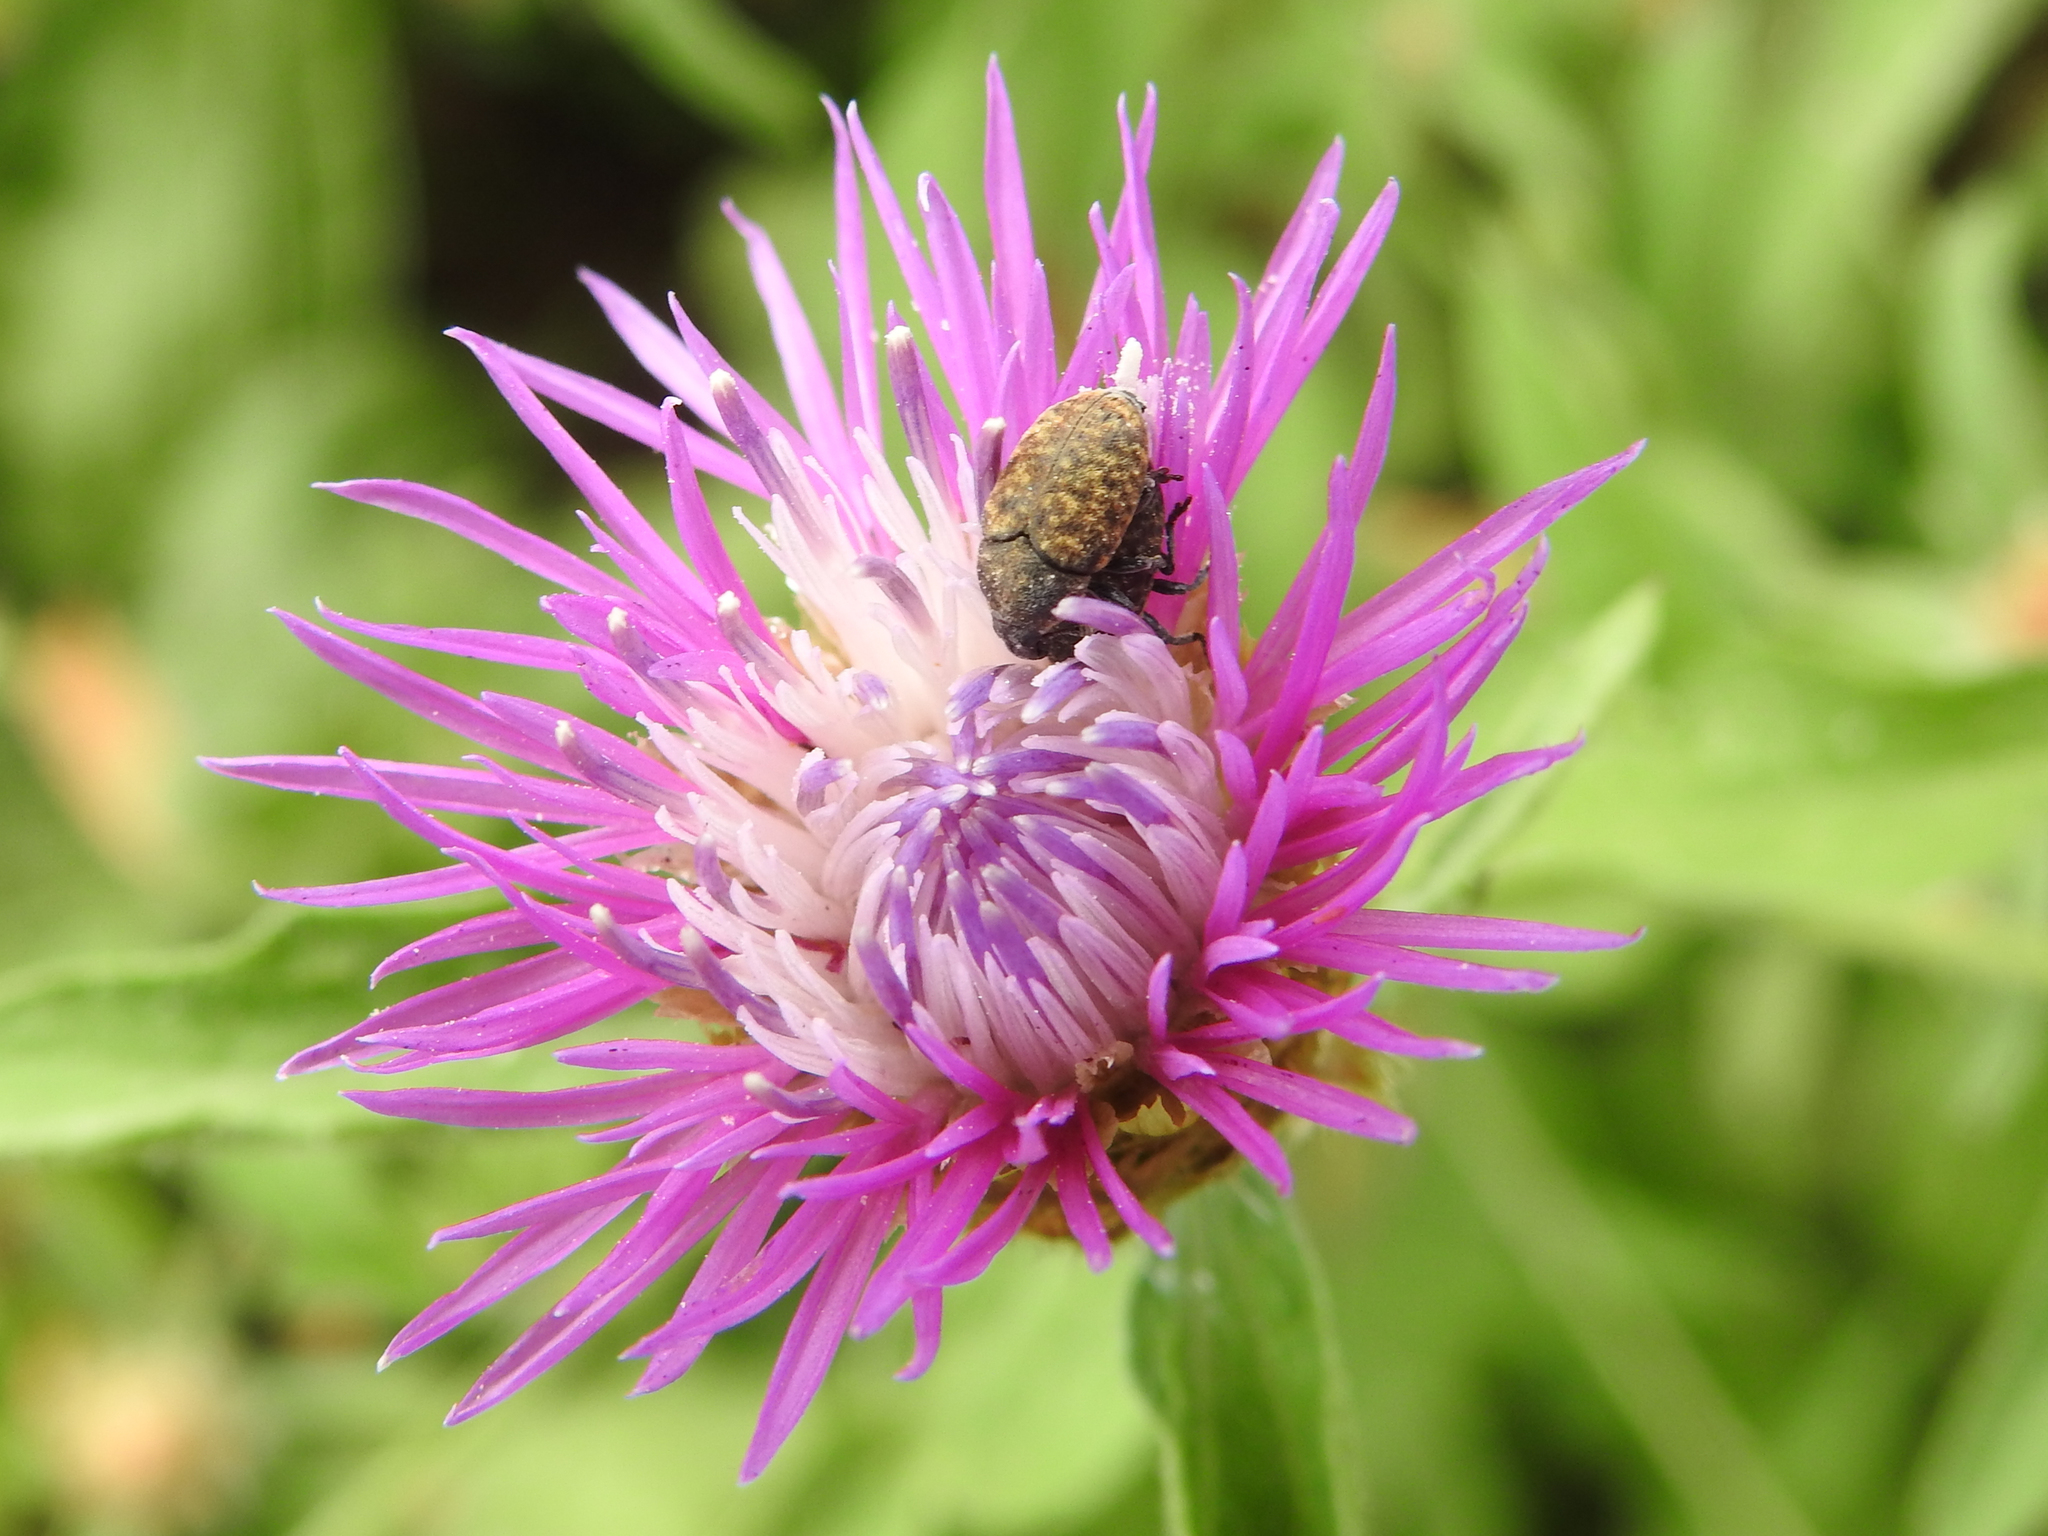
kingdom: Animalia
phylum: Arthropoda
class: Insecta
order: Coleoptera
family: Curculionidae
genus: Larinus
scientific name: Larinus obtusus
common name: Weevil
